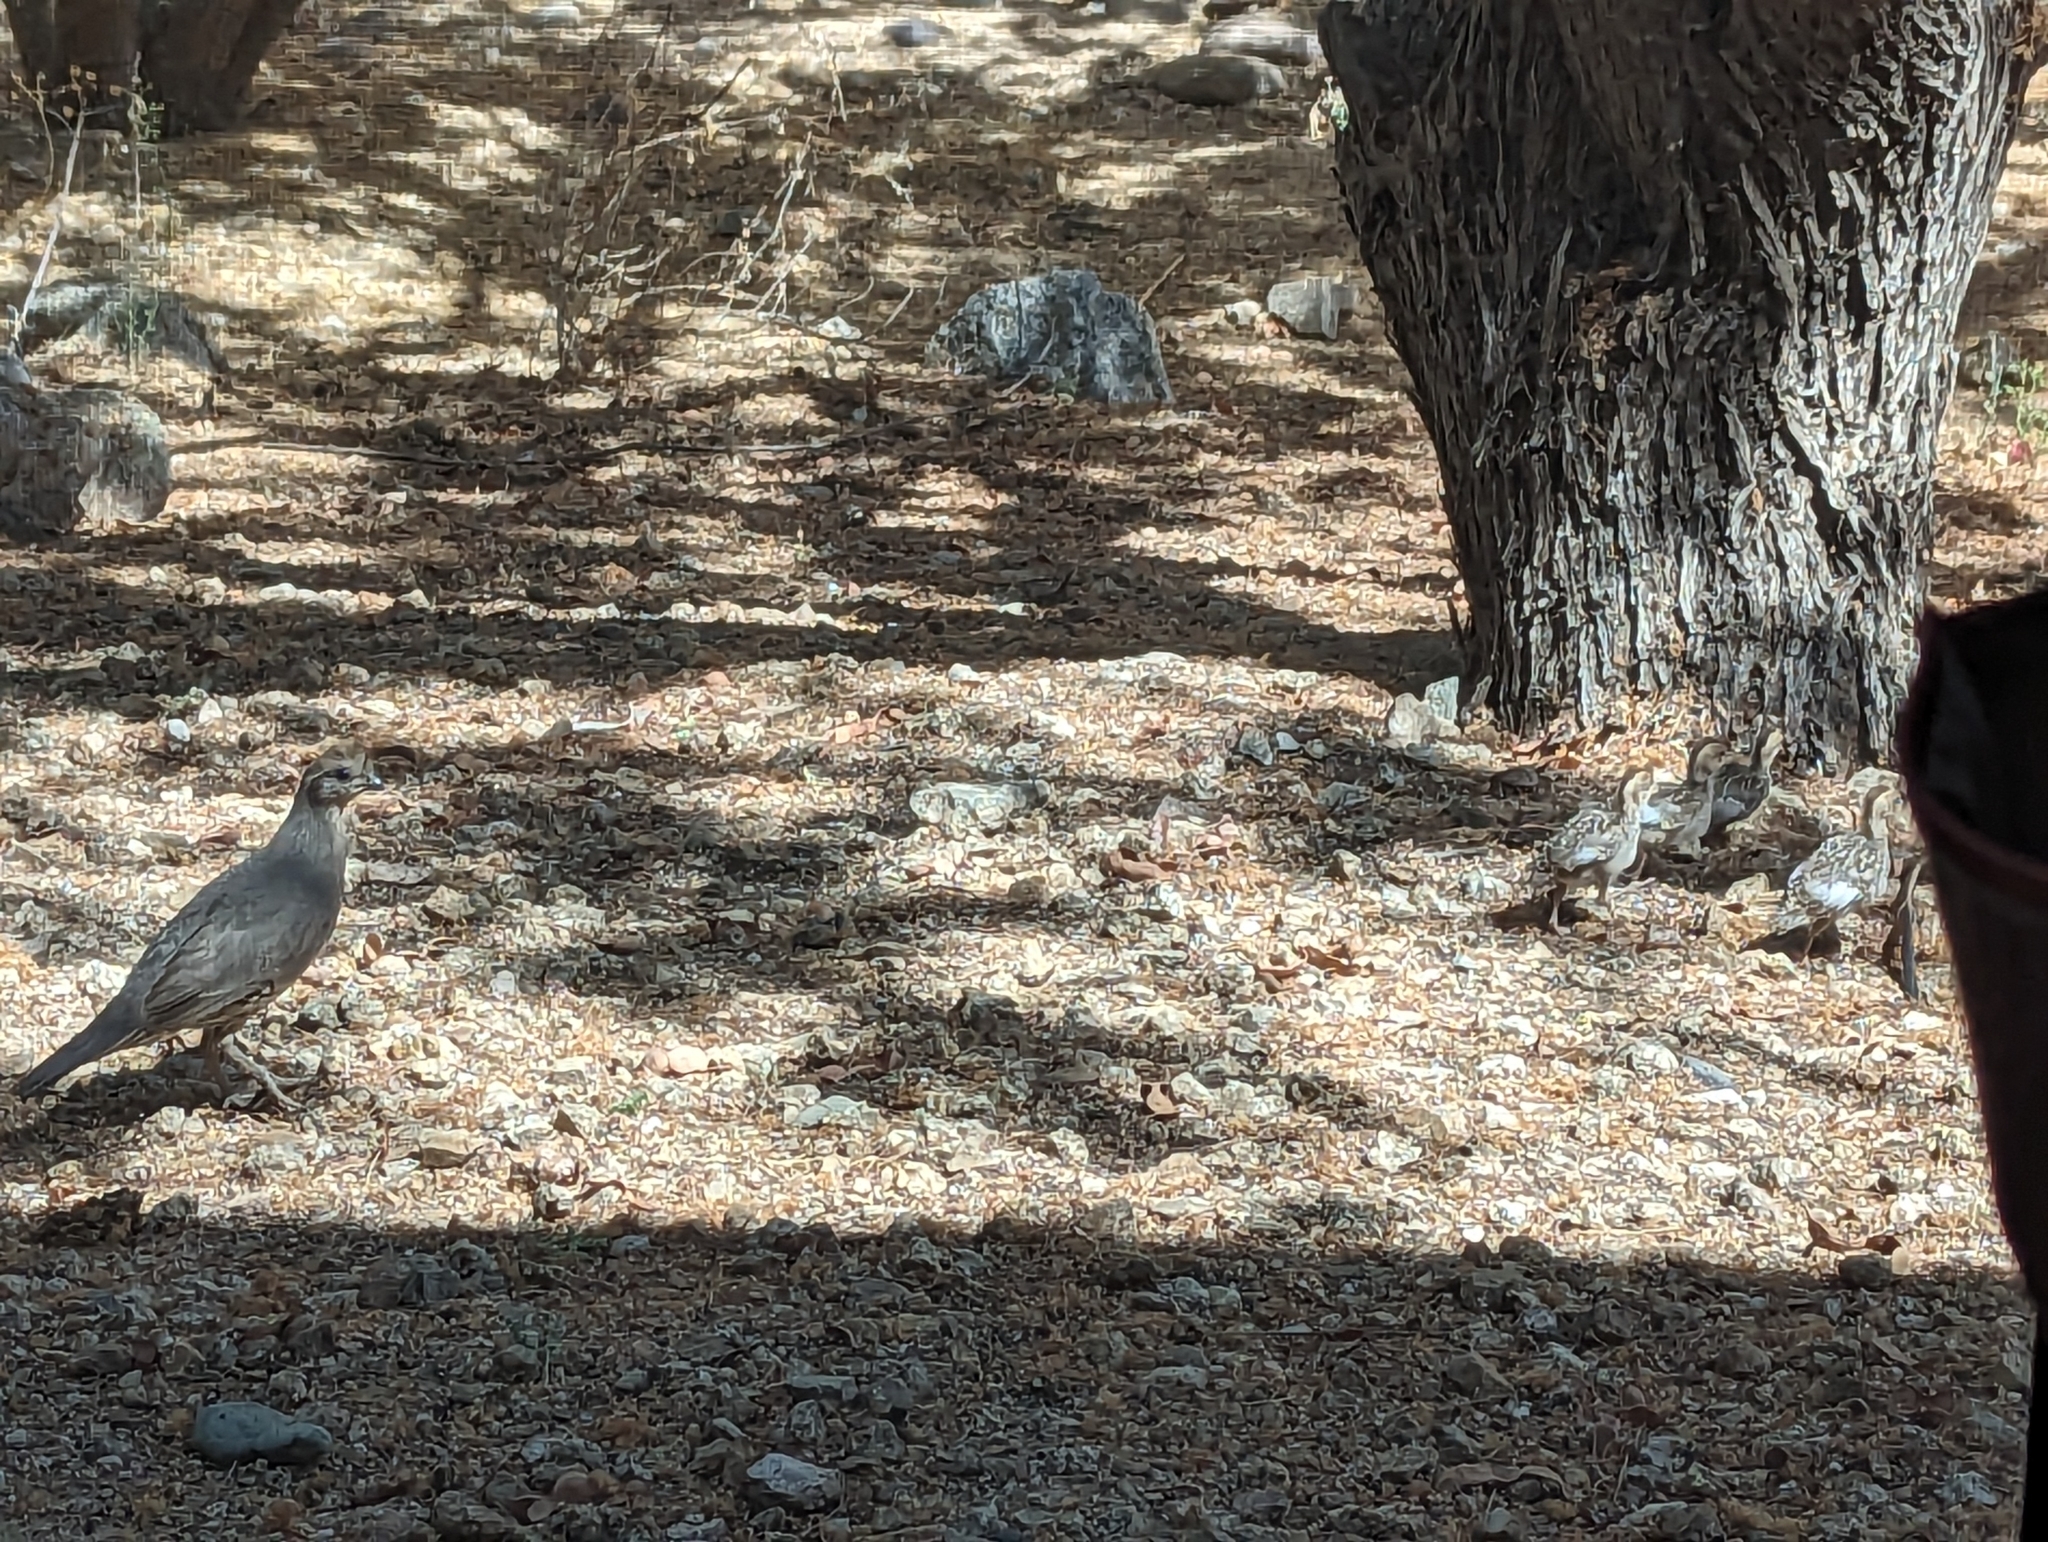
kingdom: Animalia
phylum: Chordata
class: Aves
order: Galliformes
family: Odontophoridae
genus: Callipepla
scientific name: Callipepla gambelii
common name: Gambel's quail
